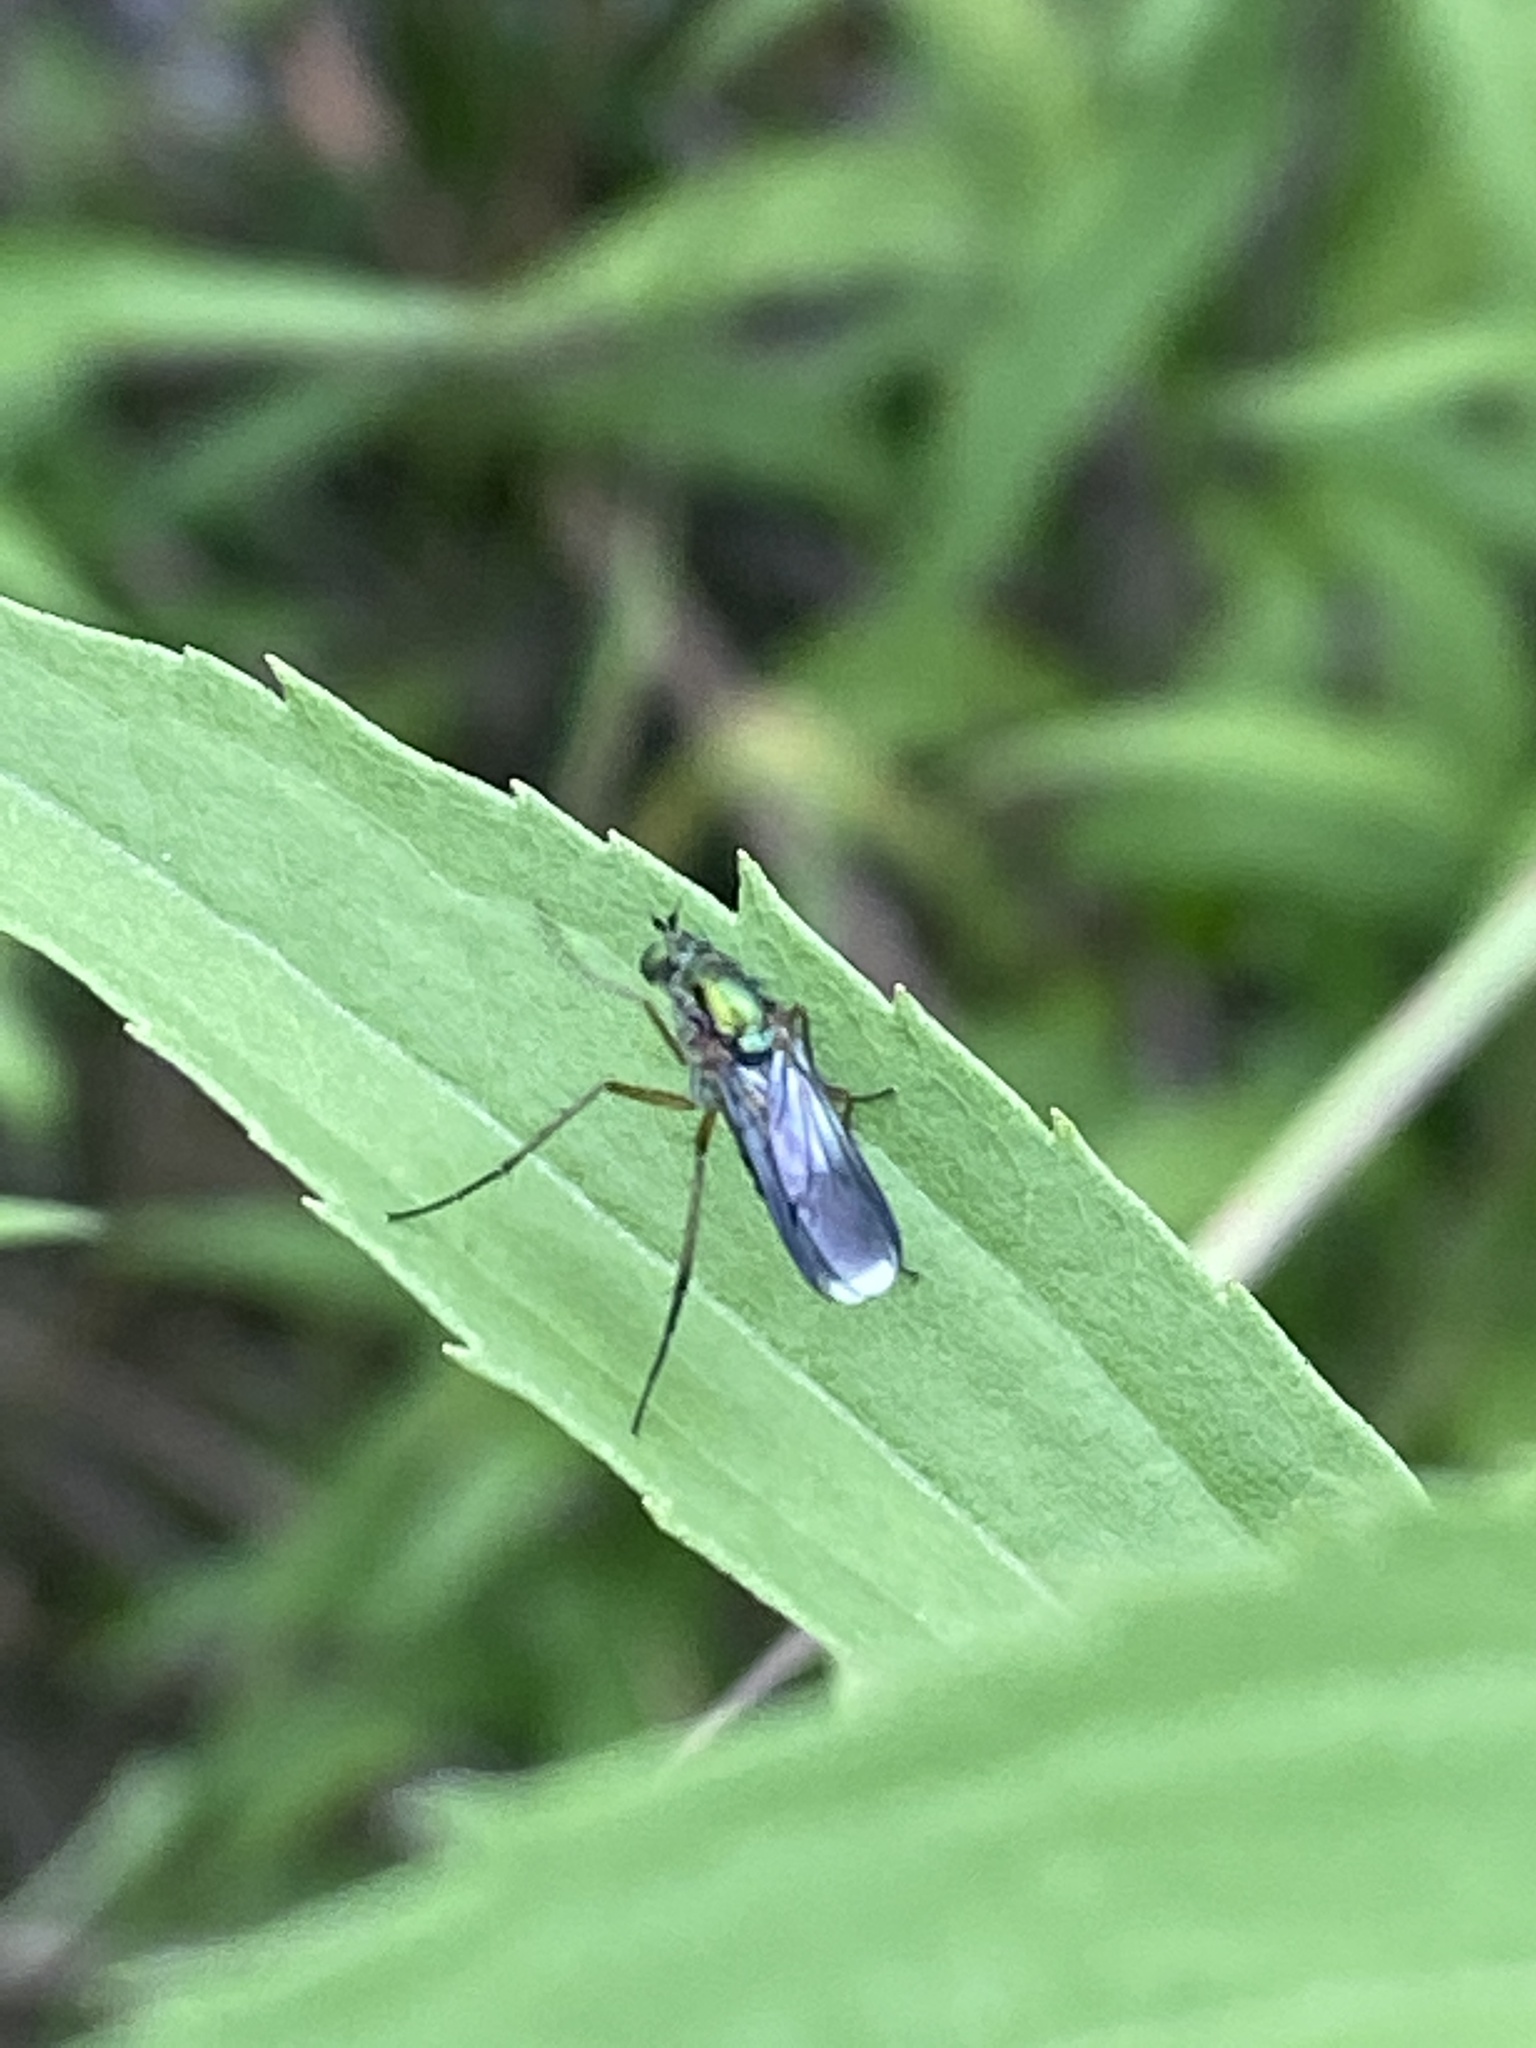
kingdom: Animalia
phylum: Arthropoda
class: Insecta
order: Diptera
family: Dolichopodidae
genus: Poecilobothrus
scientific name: Poecilobothrus nobilitatus
